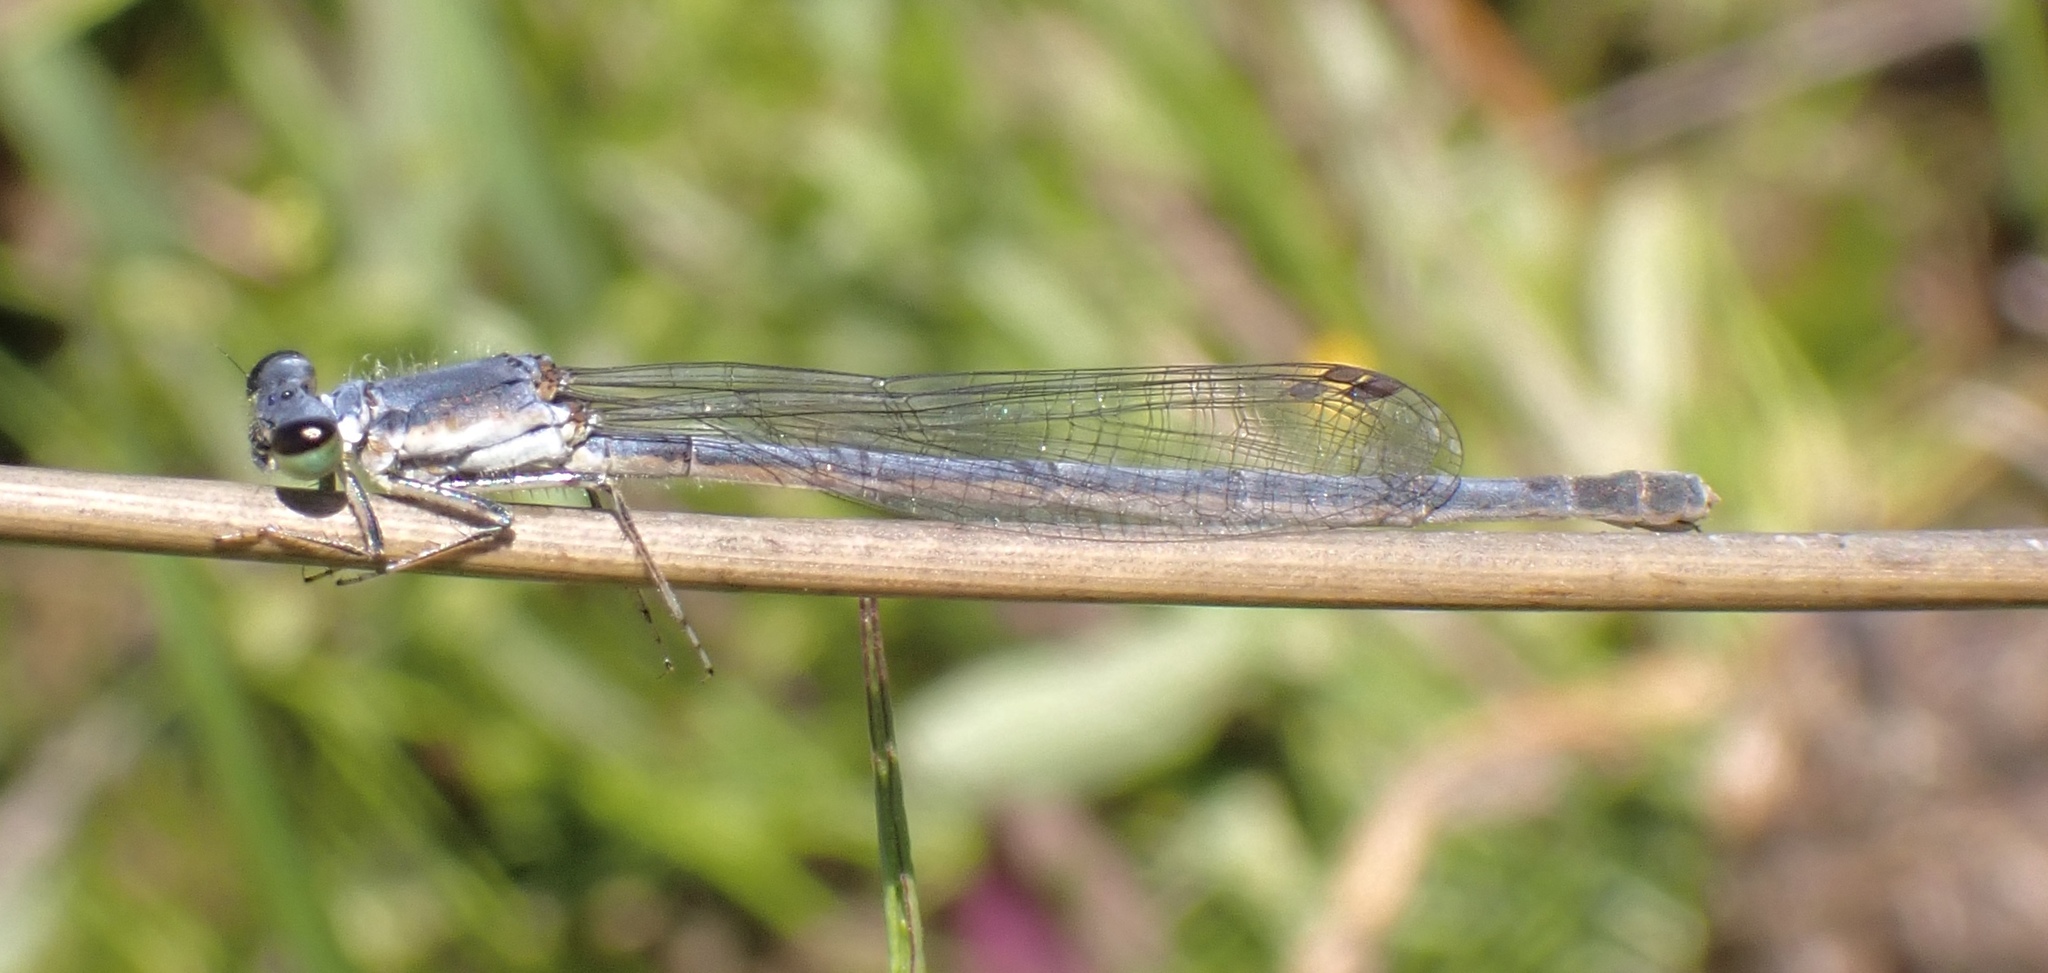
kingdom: Animalia
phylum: Arthropoda
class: Insecta
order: Odonata
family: Coenagrionidae
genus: Ischnura
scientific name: Ischnura posita
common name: Fragile forktail
